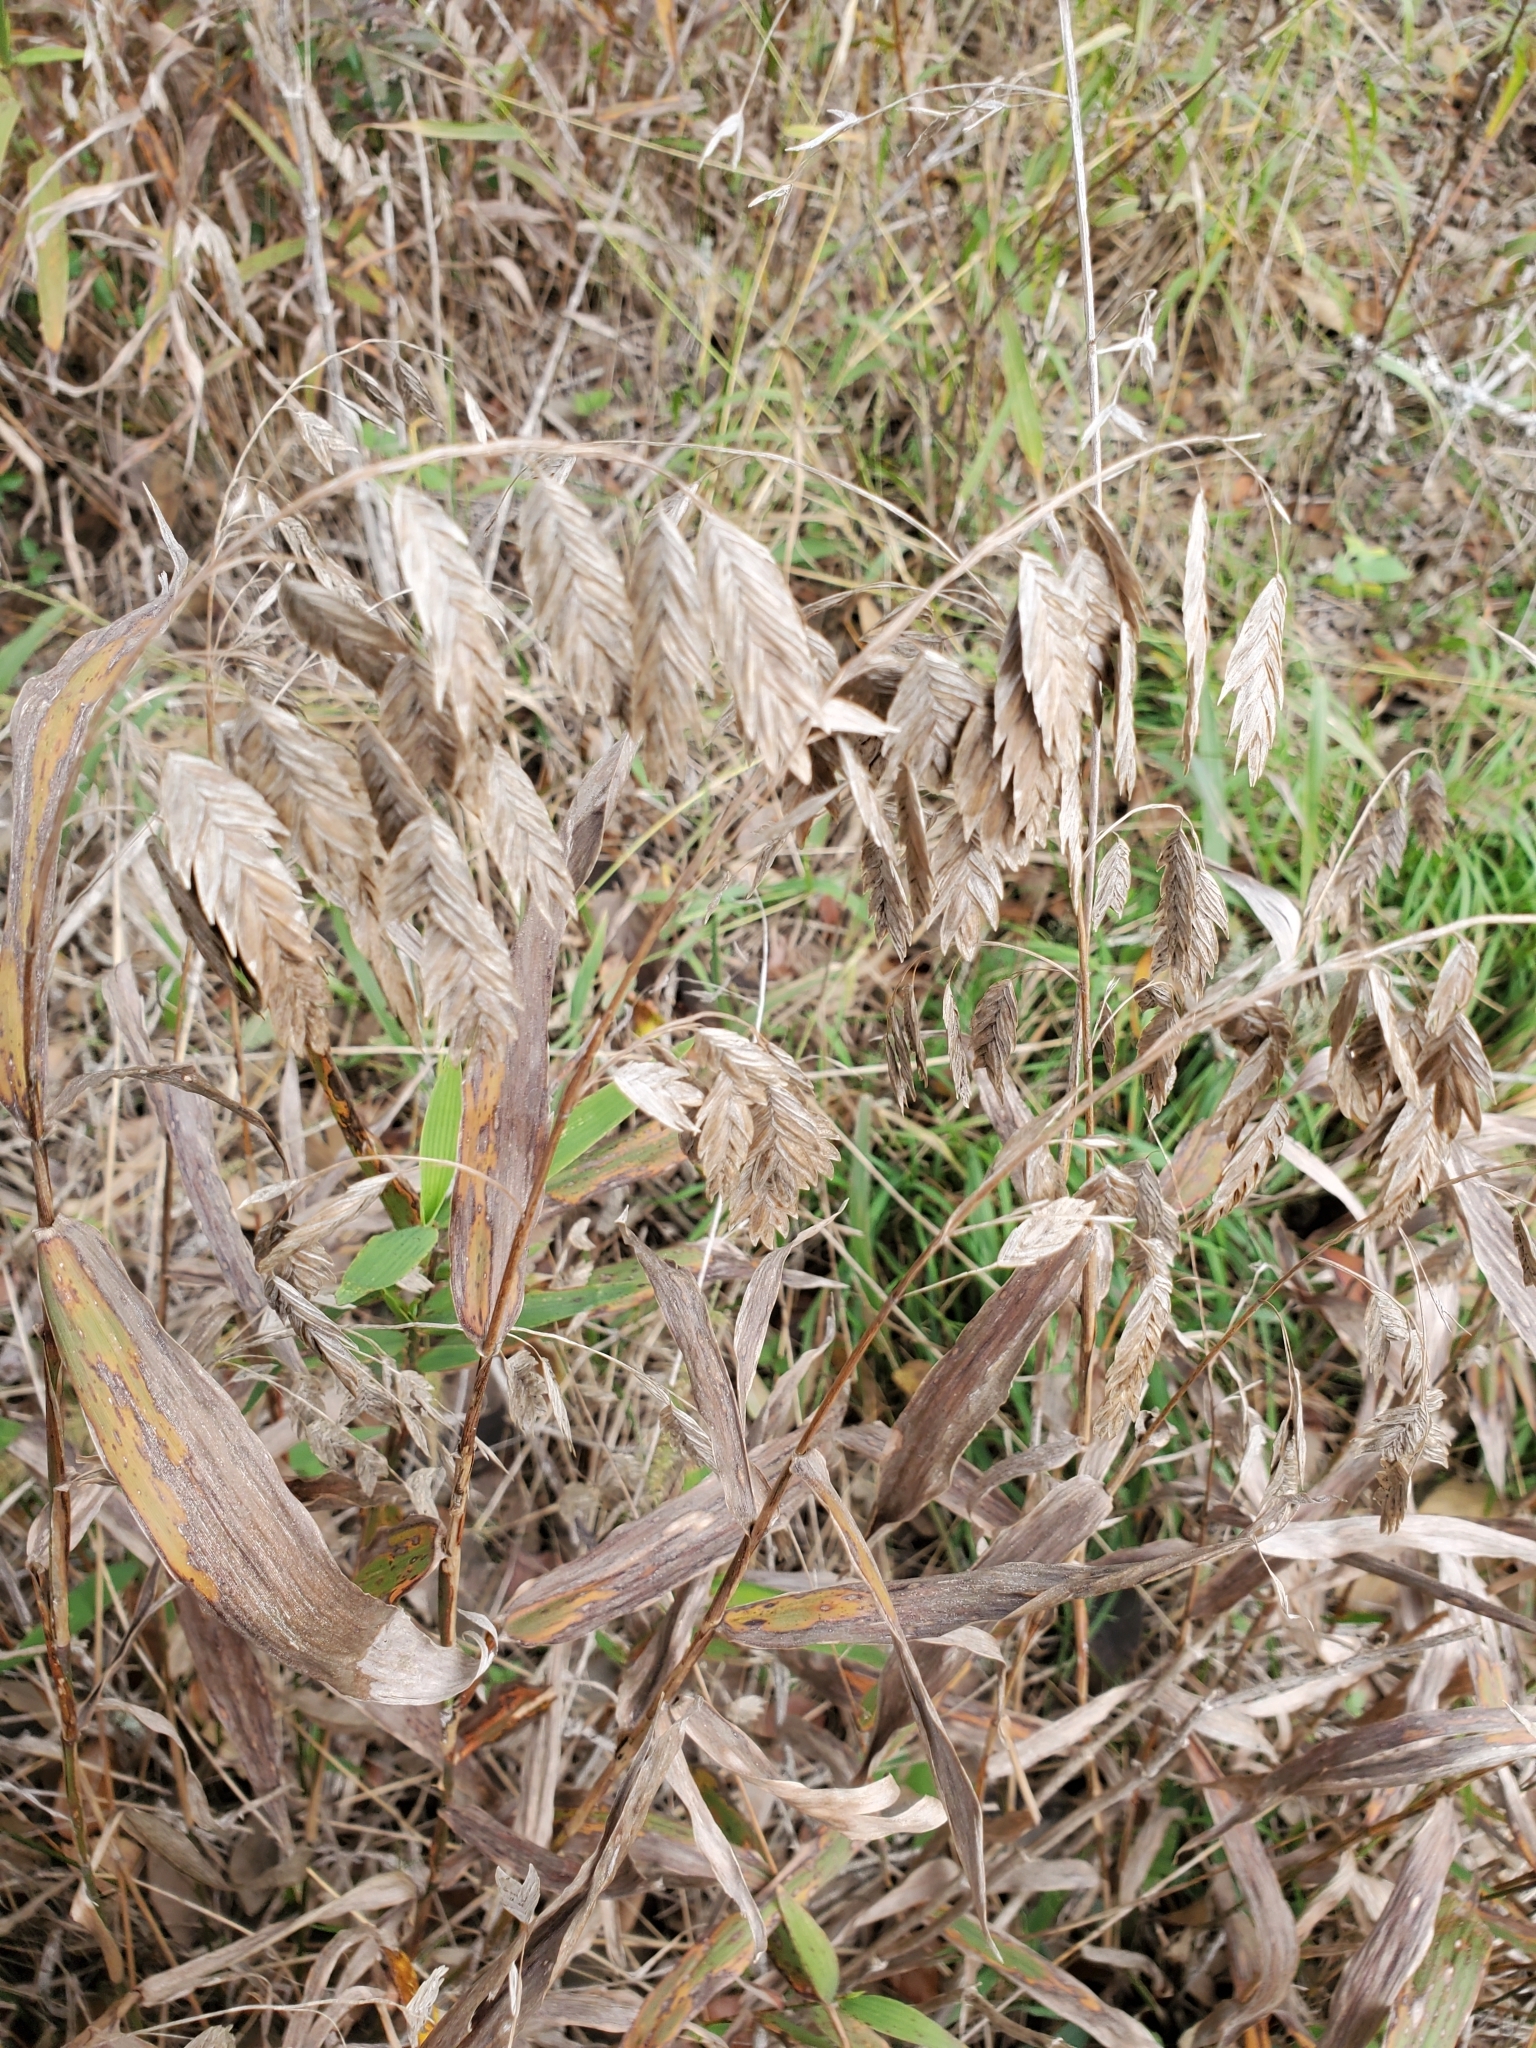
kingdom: Plantae
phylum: Tracheophyta
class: Liliopsida
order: Poales
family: Poaceae
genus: Chasmanthium
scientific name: Chasmanthium latifolium
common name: Broad-leaved chasmanthium
